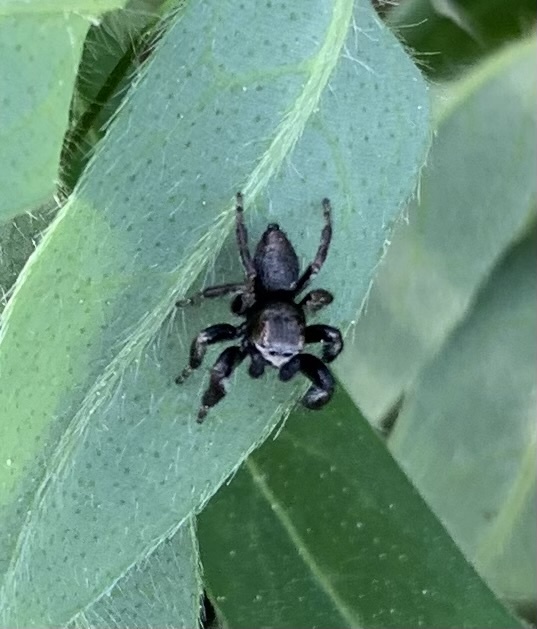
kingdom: Animalia
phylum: Arthropoda
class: Arachnida
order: Araneae
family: Salticidae
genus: Evarcha
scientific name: Evarcha arcuata
